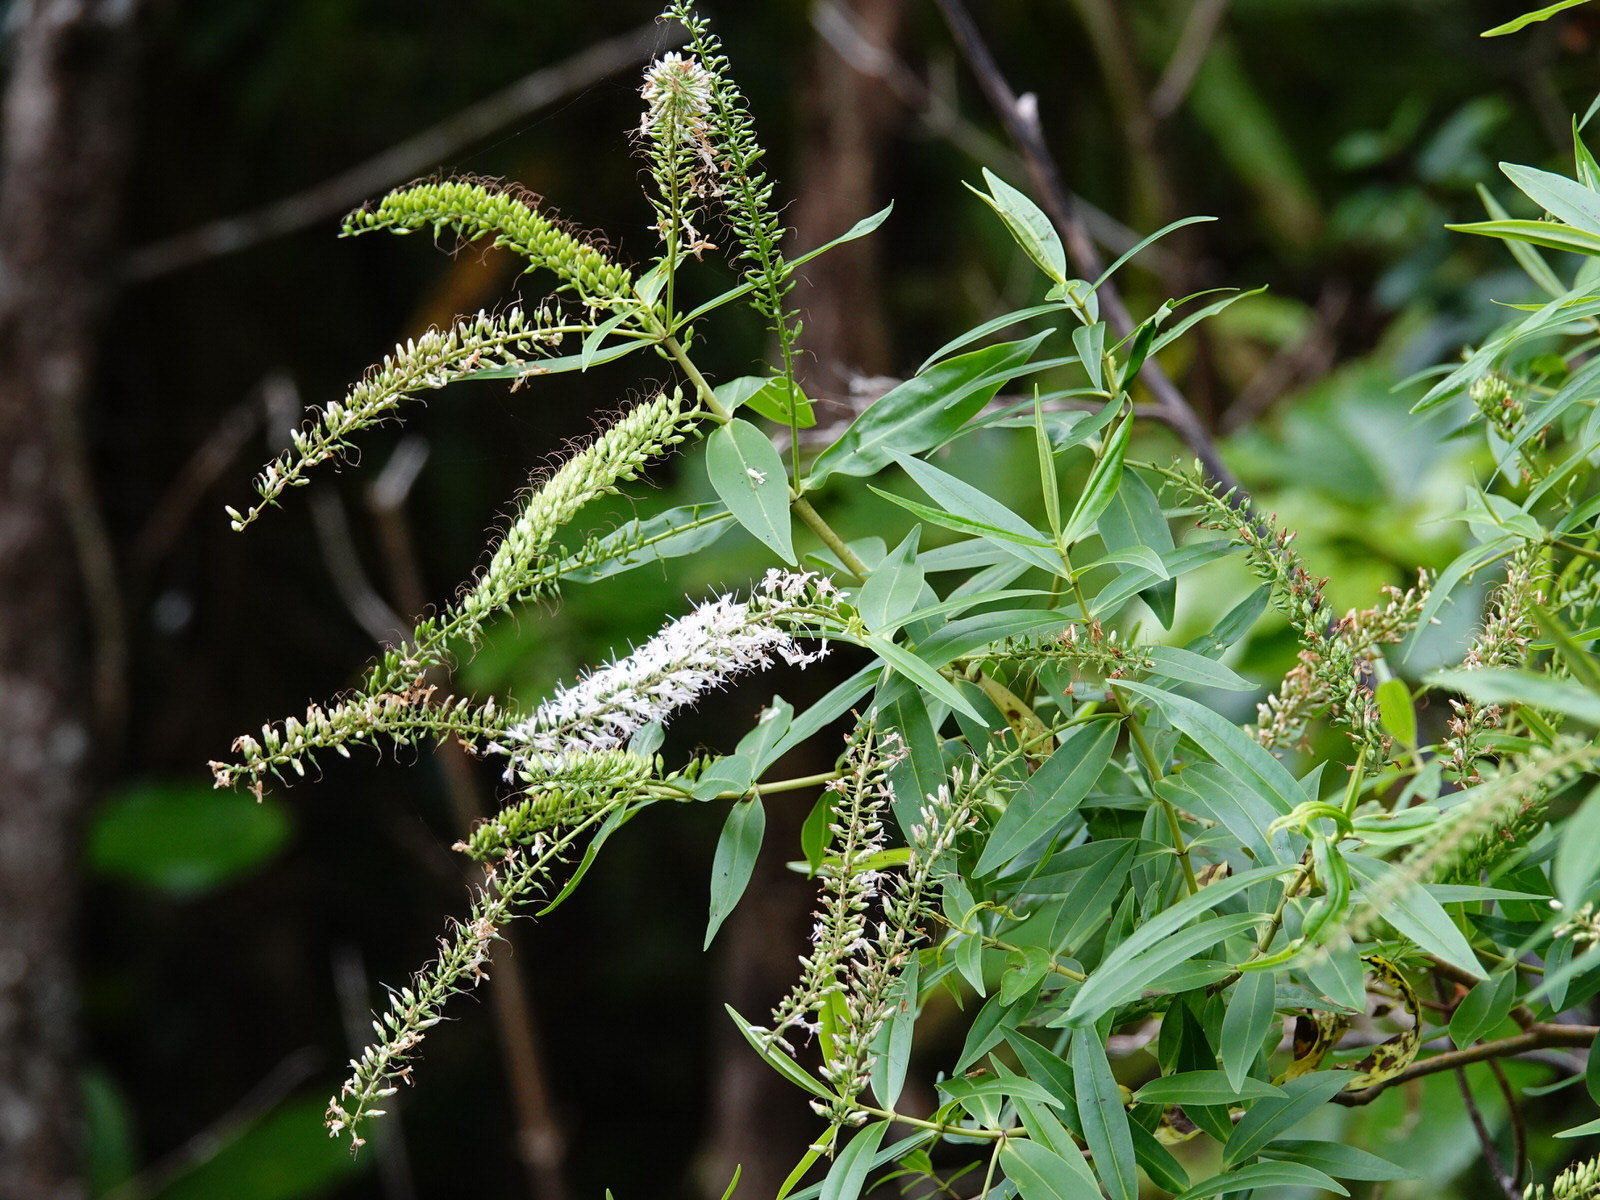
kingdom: Plantae
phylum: Tracheophyta
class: Magnoliopsida
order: Lamiales
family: Plantaginaceae
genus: Veronica
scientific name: Veronica stricta
